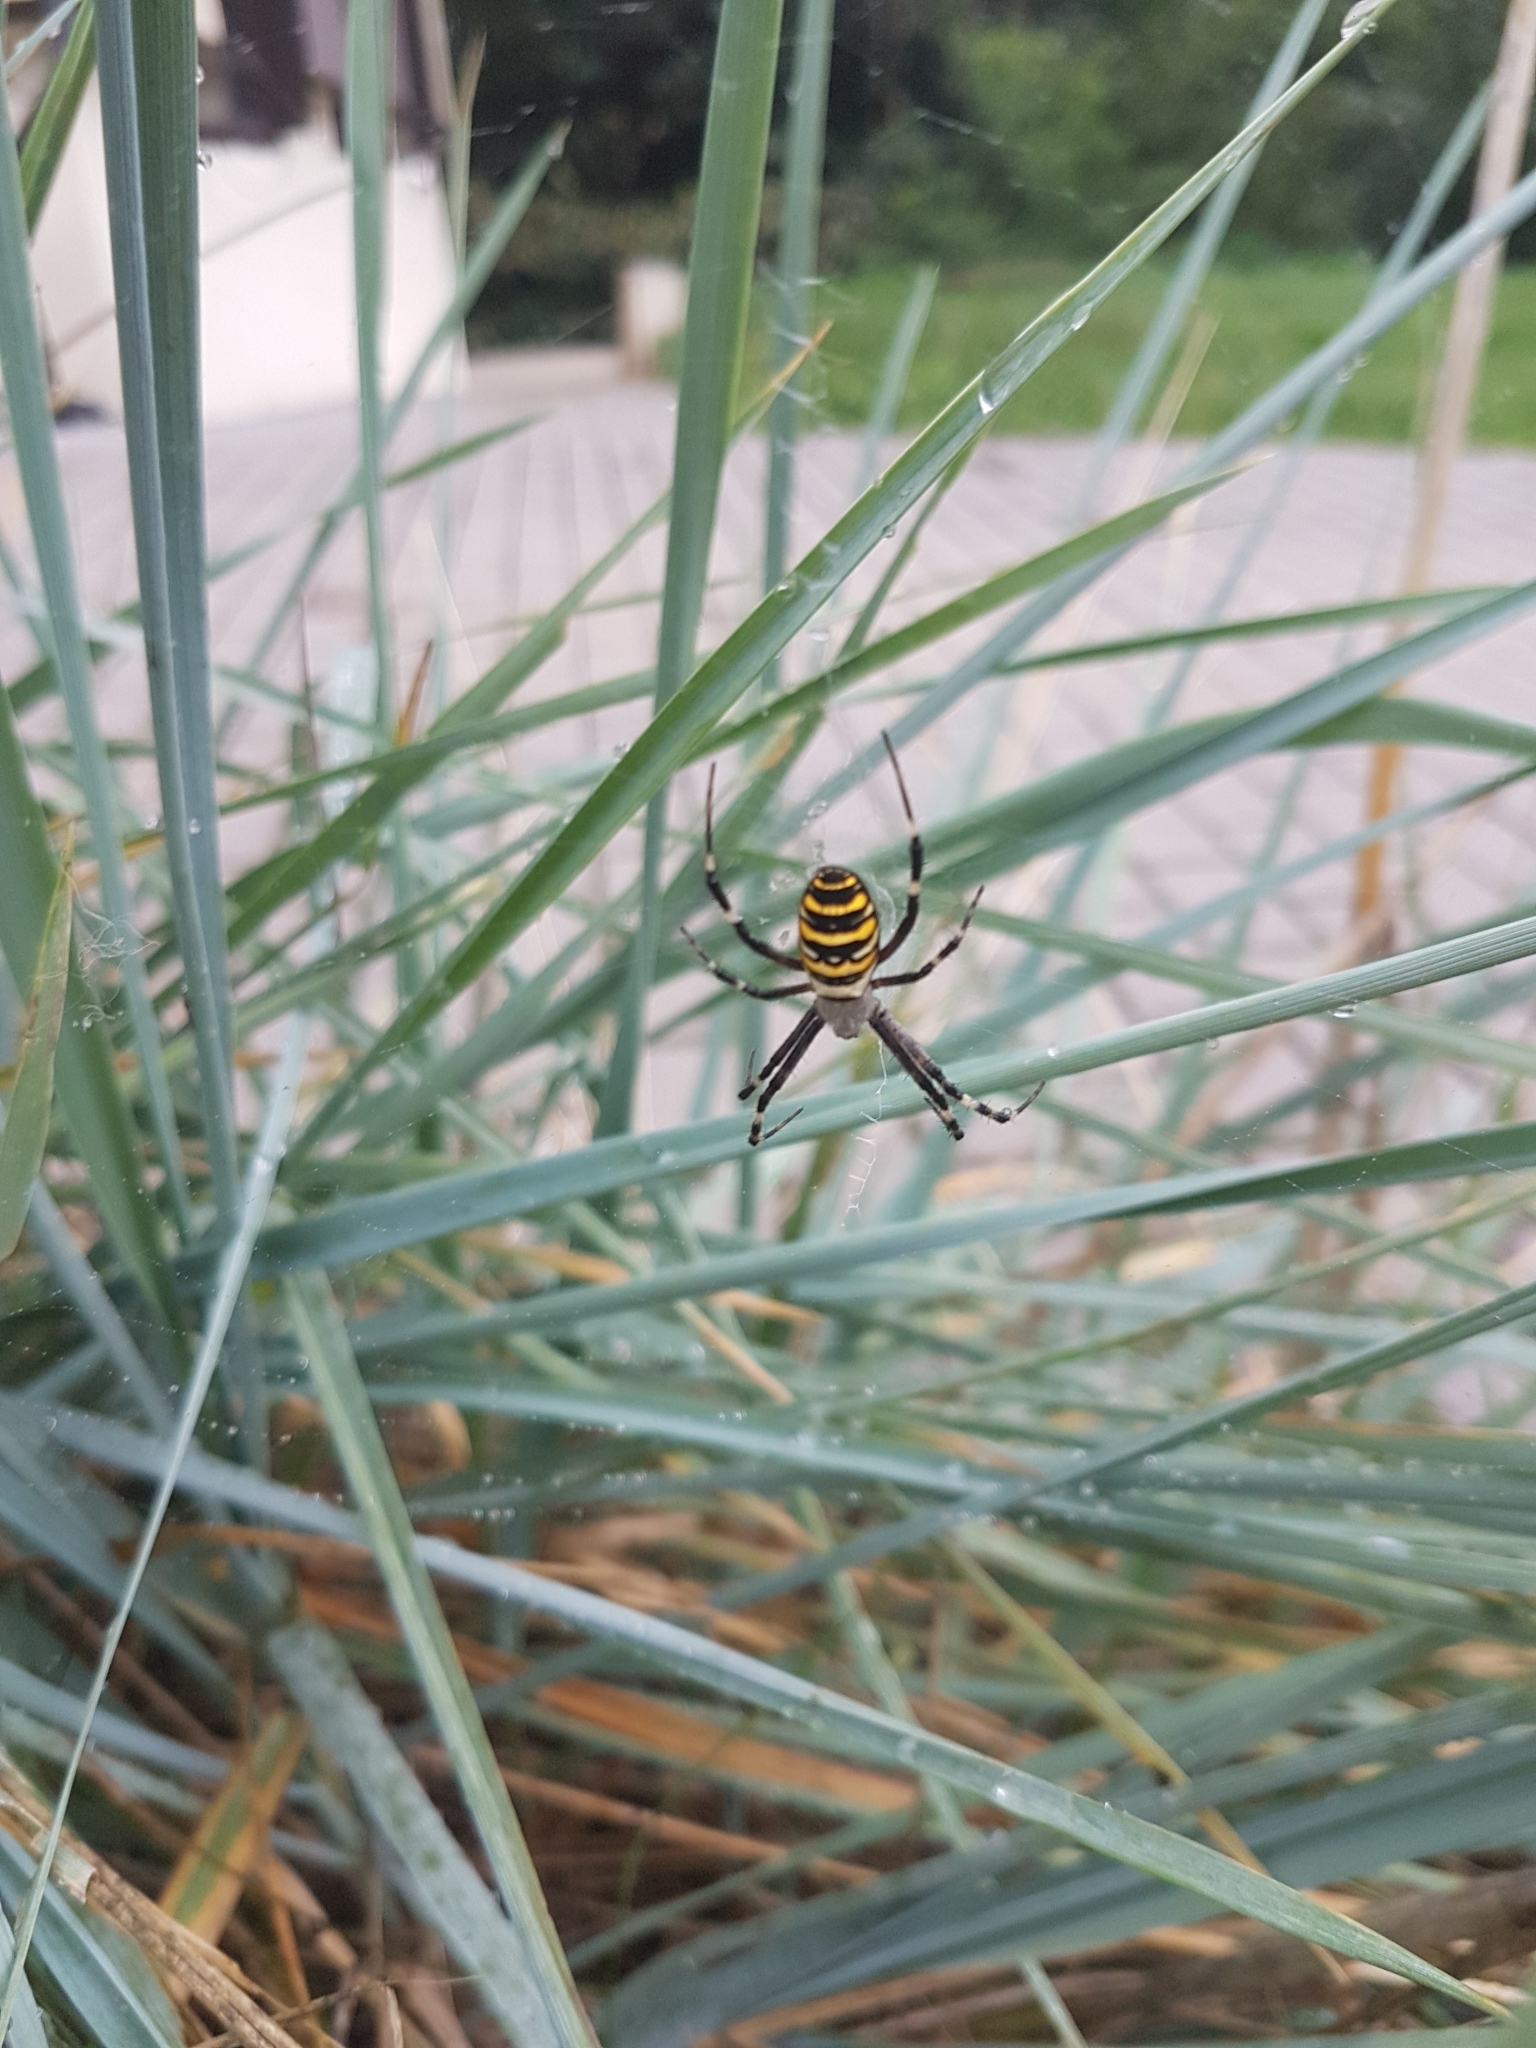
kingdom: Animalia
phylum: Arthropoda
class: Arachnida
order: Araneae
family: Araneidae
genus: Argiope
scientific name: Argiope bruennichi
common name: Wasp spider
